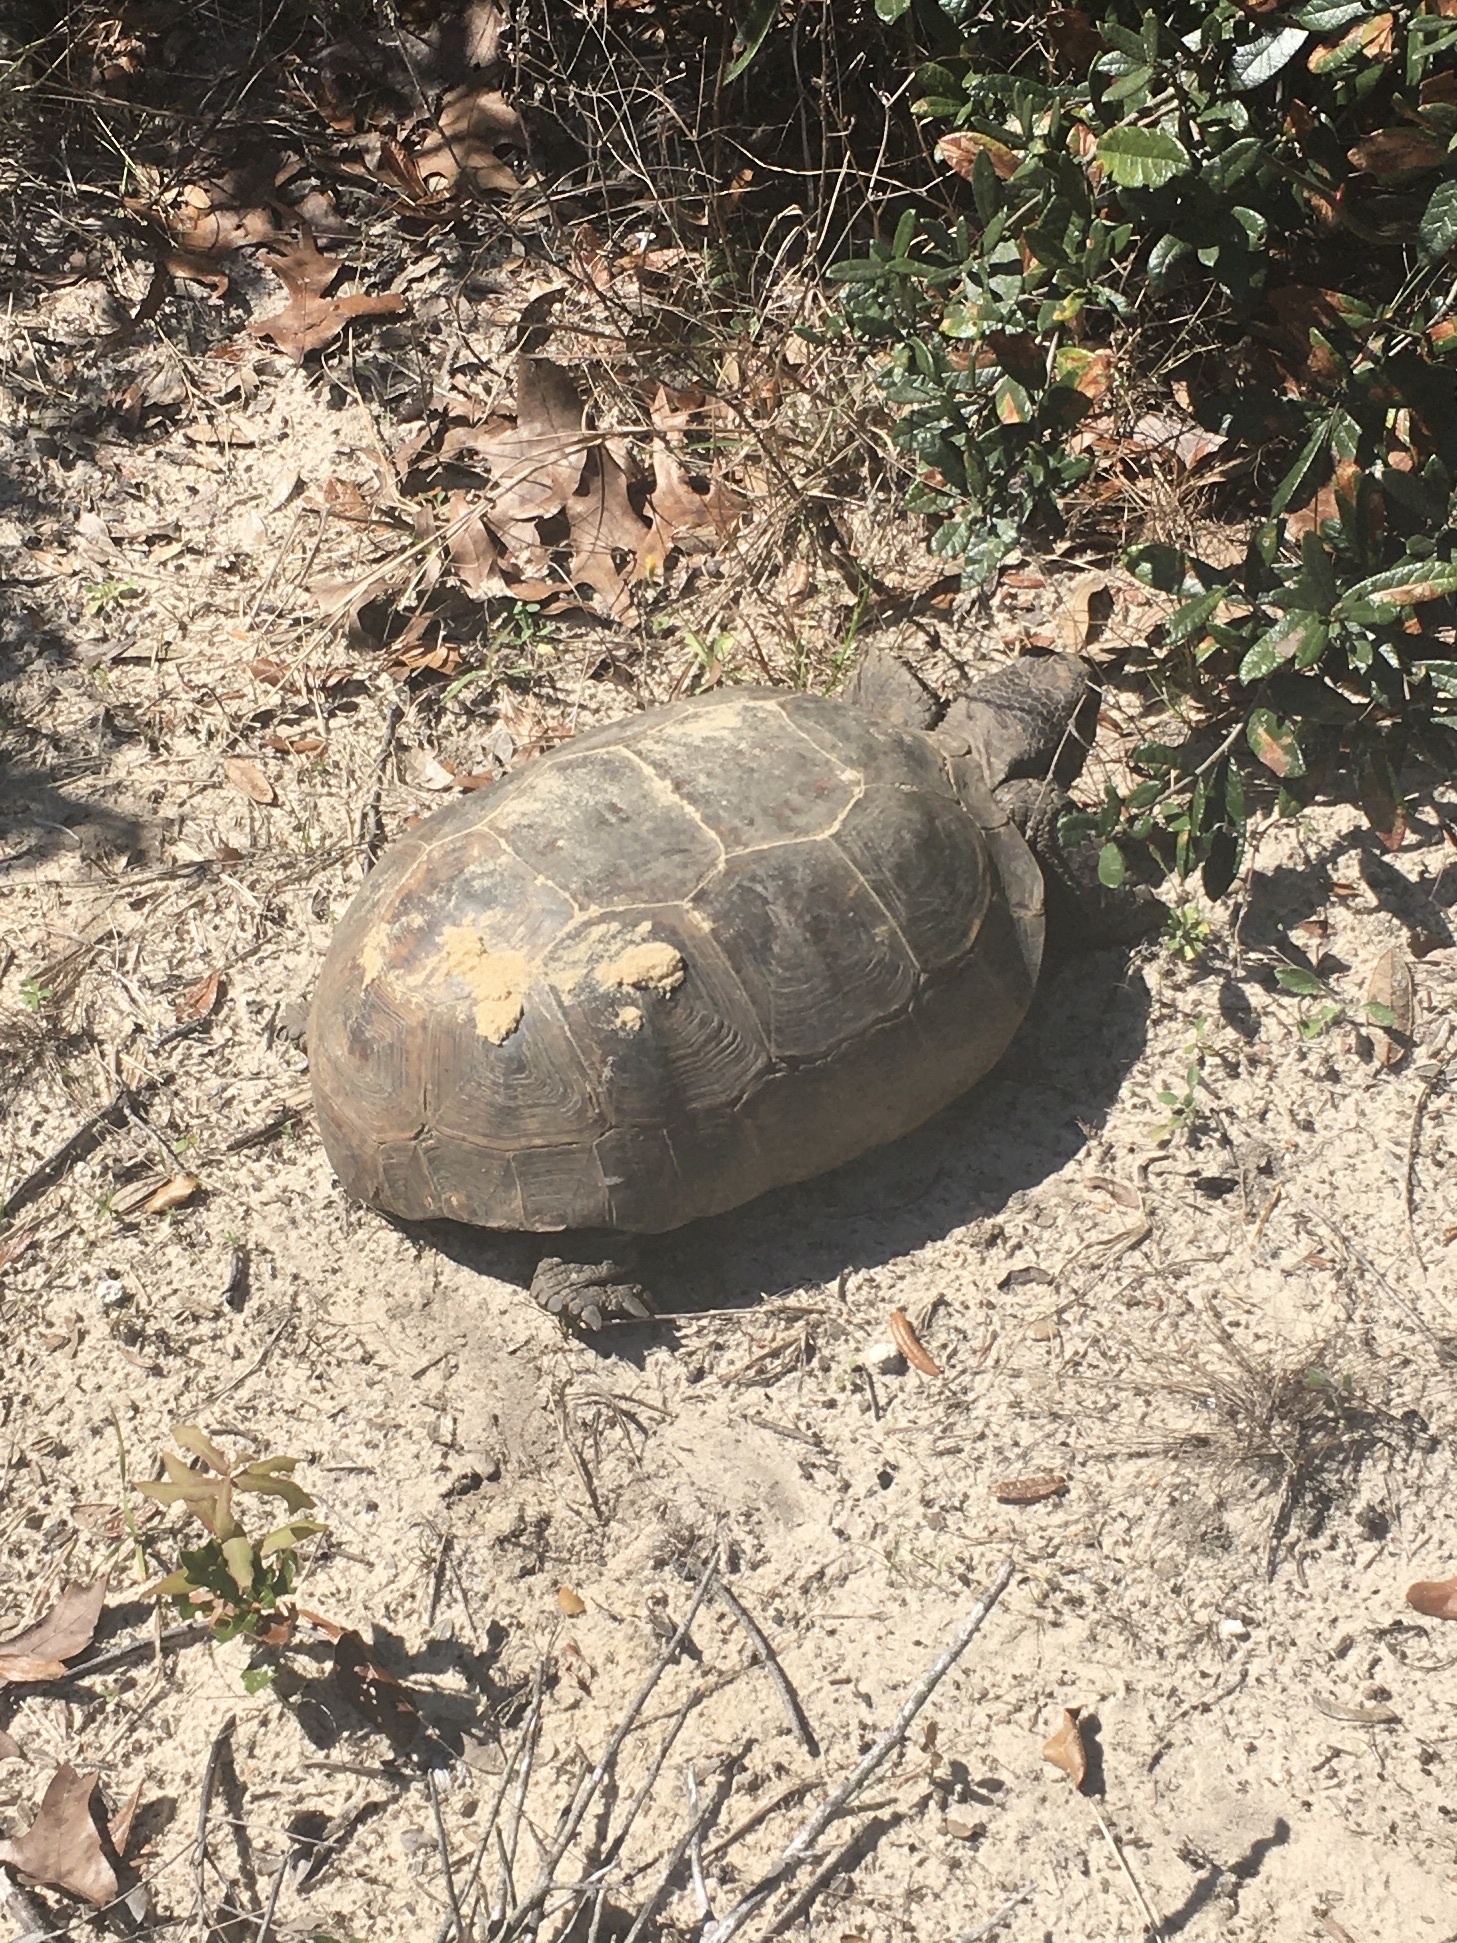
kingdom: Animalia
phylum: Chordata
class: Testudines
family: Testudinidae
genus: Gopherus
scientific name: Gopherus polyphemus
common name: Florida gopher tortoise
